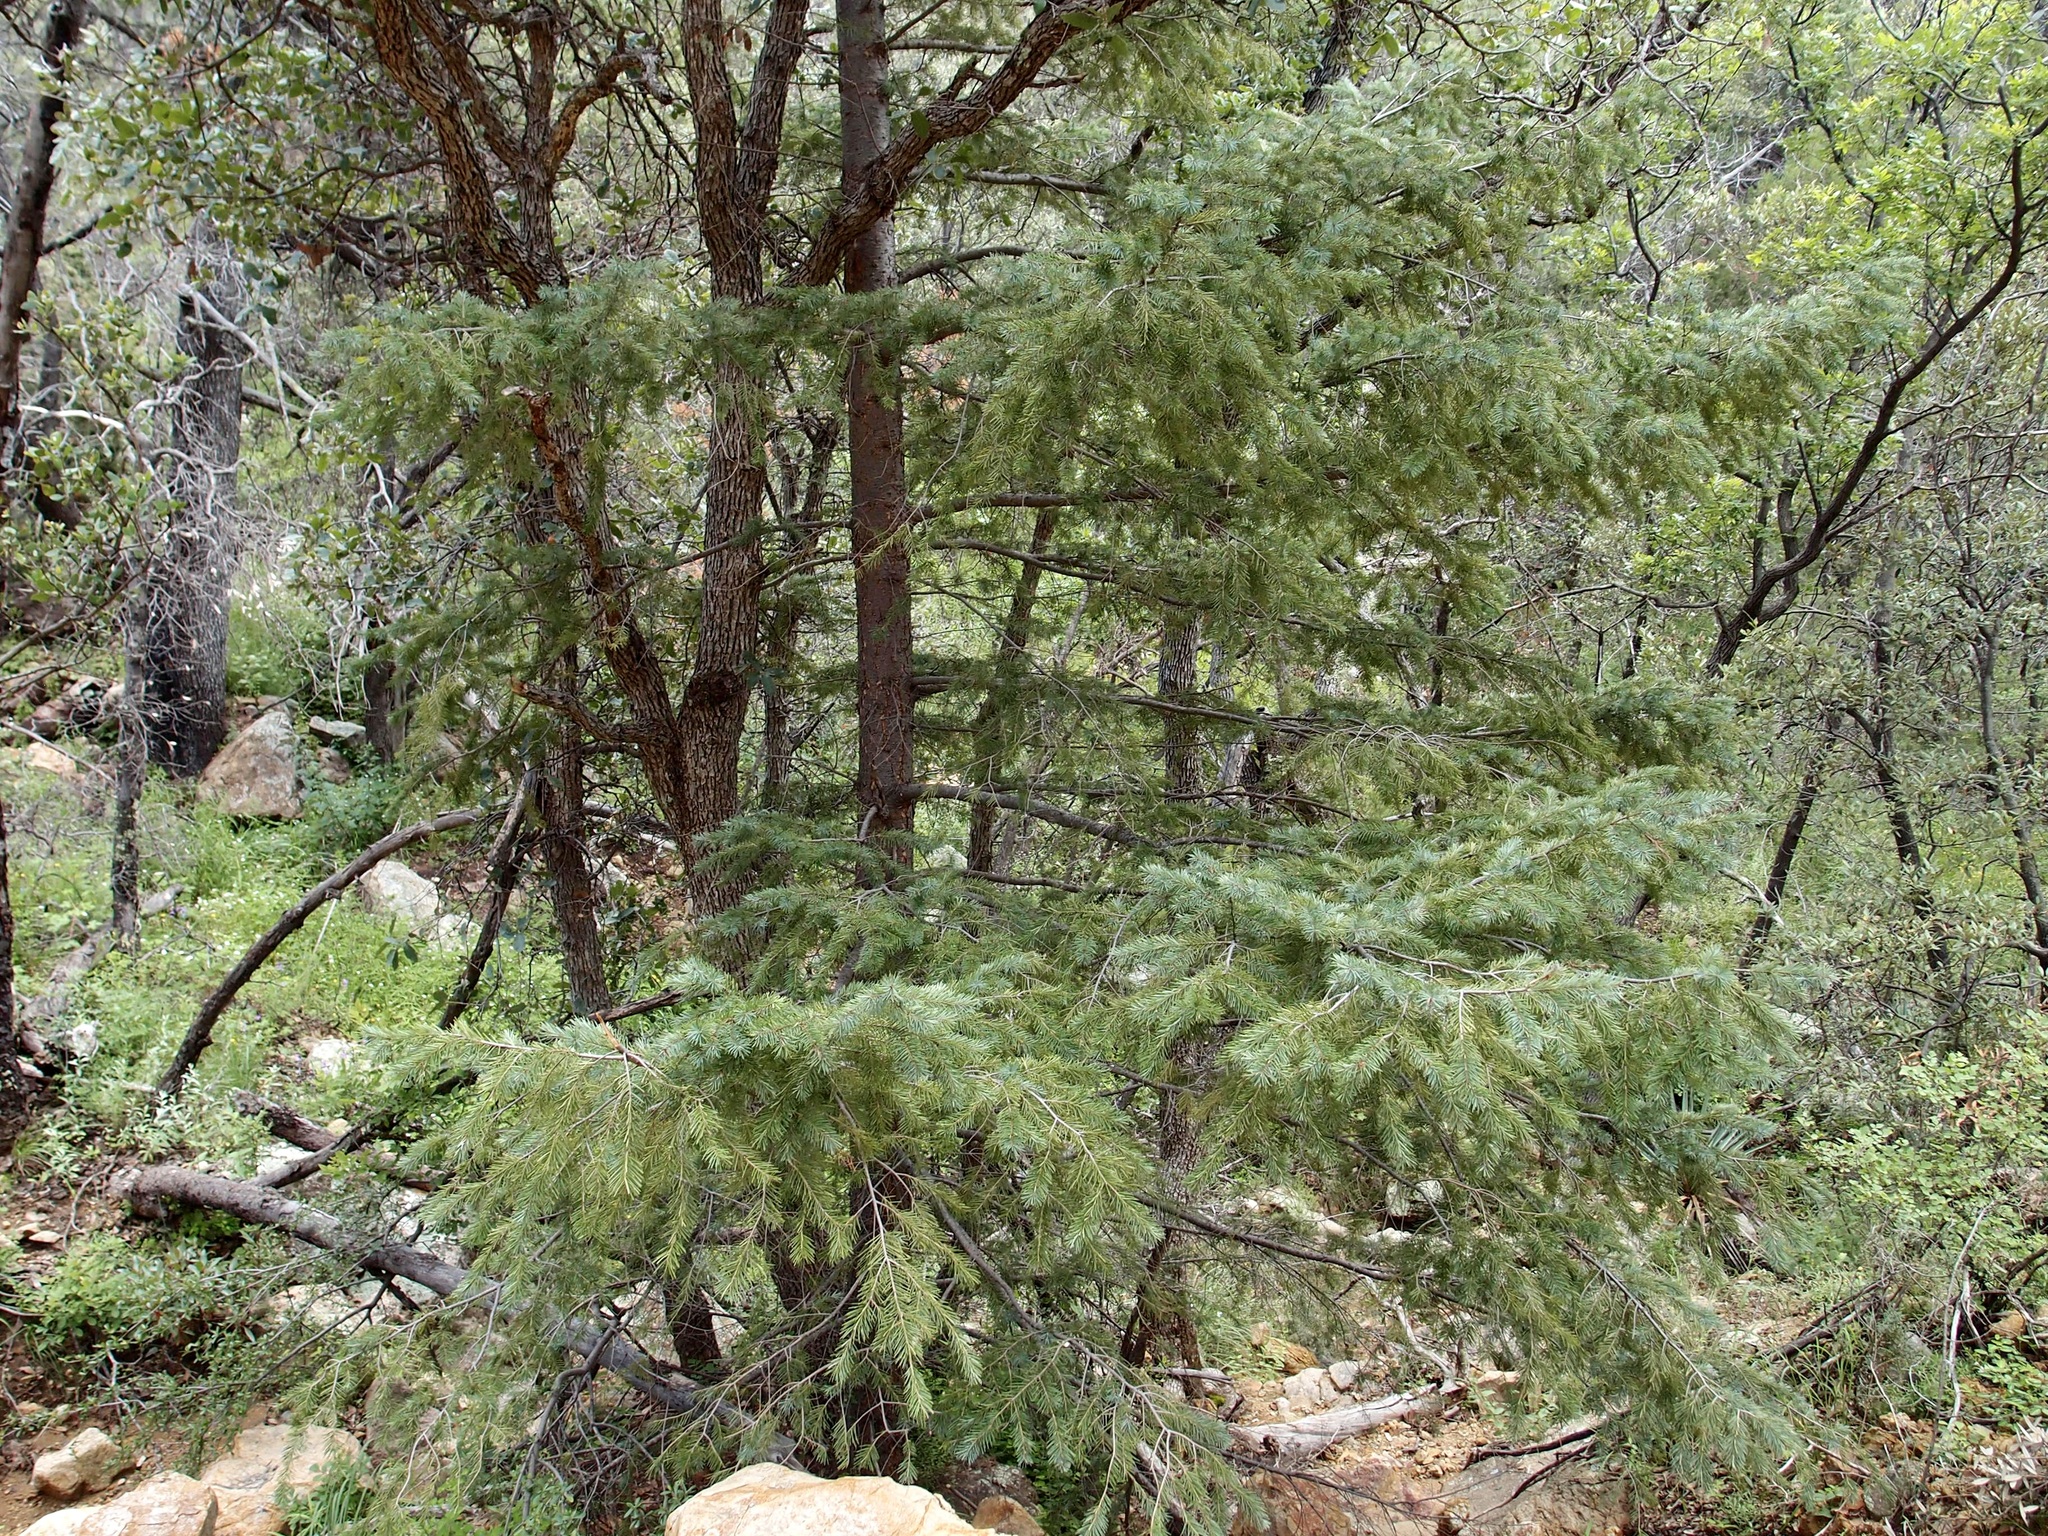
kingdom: Plantae
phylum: Tracheophyta
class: Pinopsida
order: Pinales
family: Pinaceae
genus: Pseudotsuga
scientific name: Pseudotsuga menziesii
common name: Douglas fir
